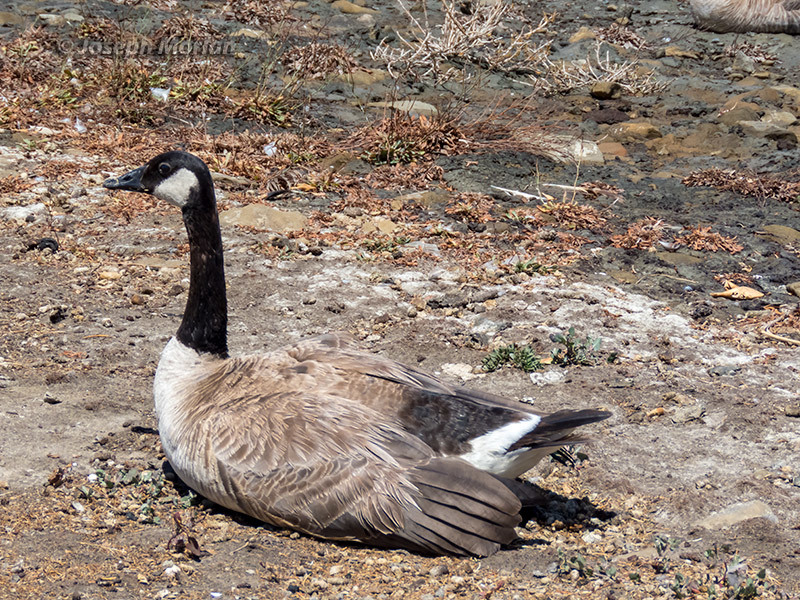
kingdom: Animalia
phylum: Chordata
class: Aves
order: Anseriformes
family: Anatidae
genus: Branta
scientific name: Branta canadensis
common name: Canada goose
